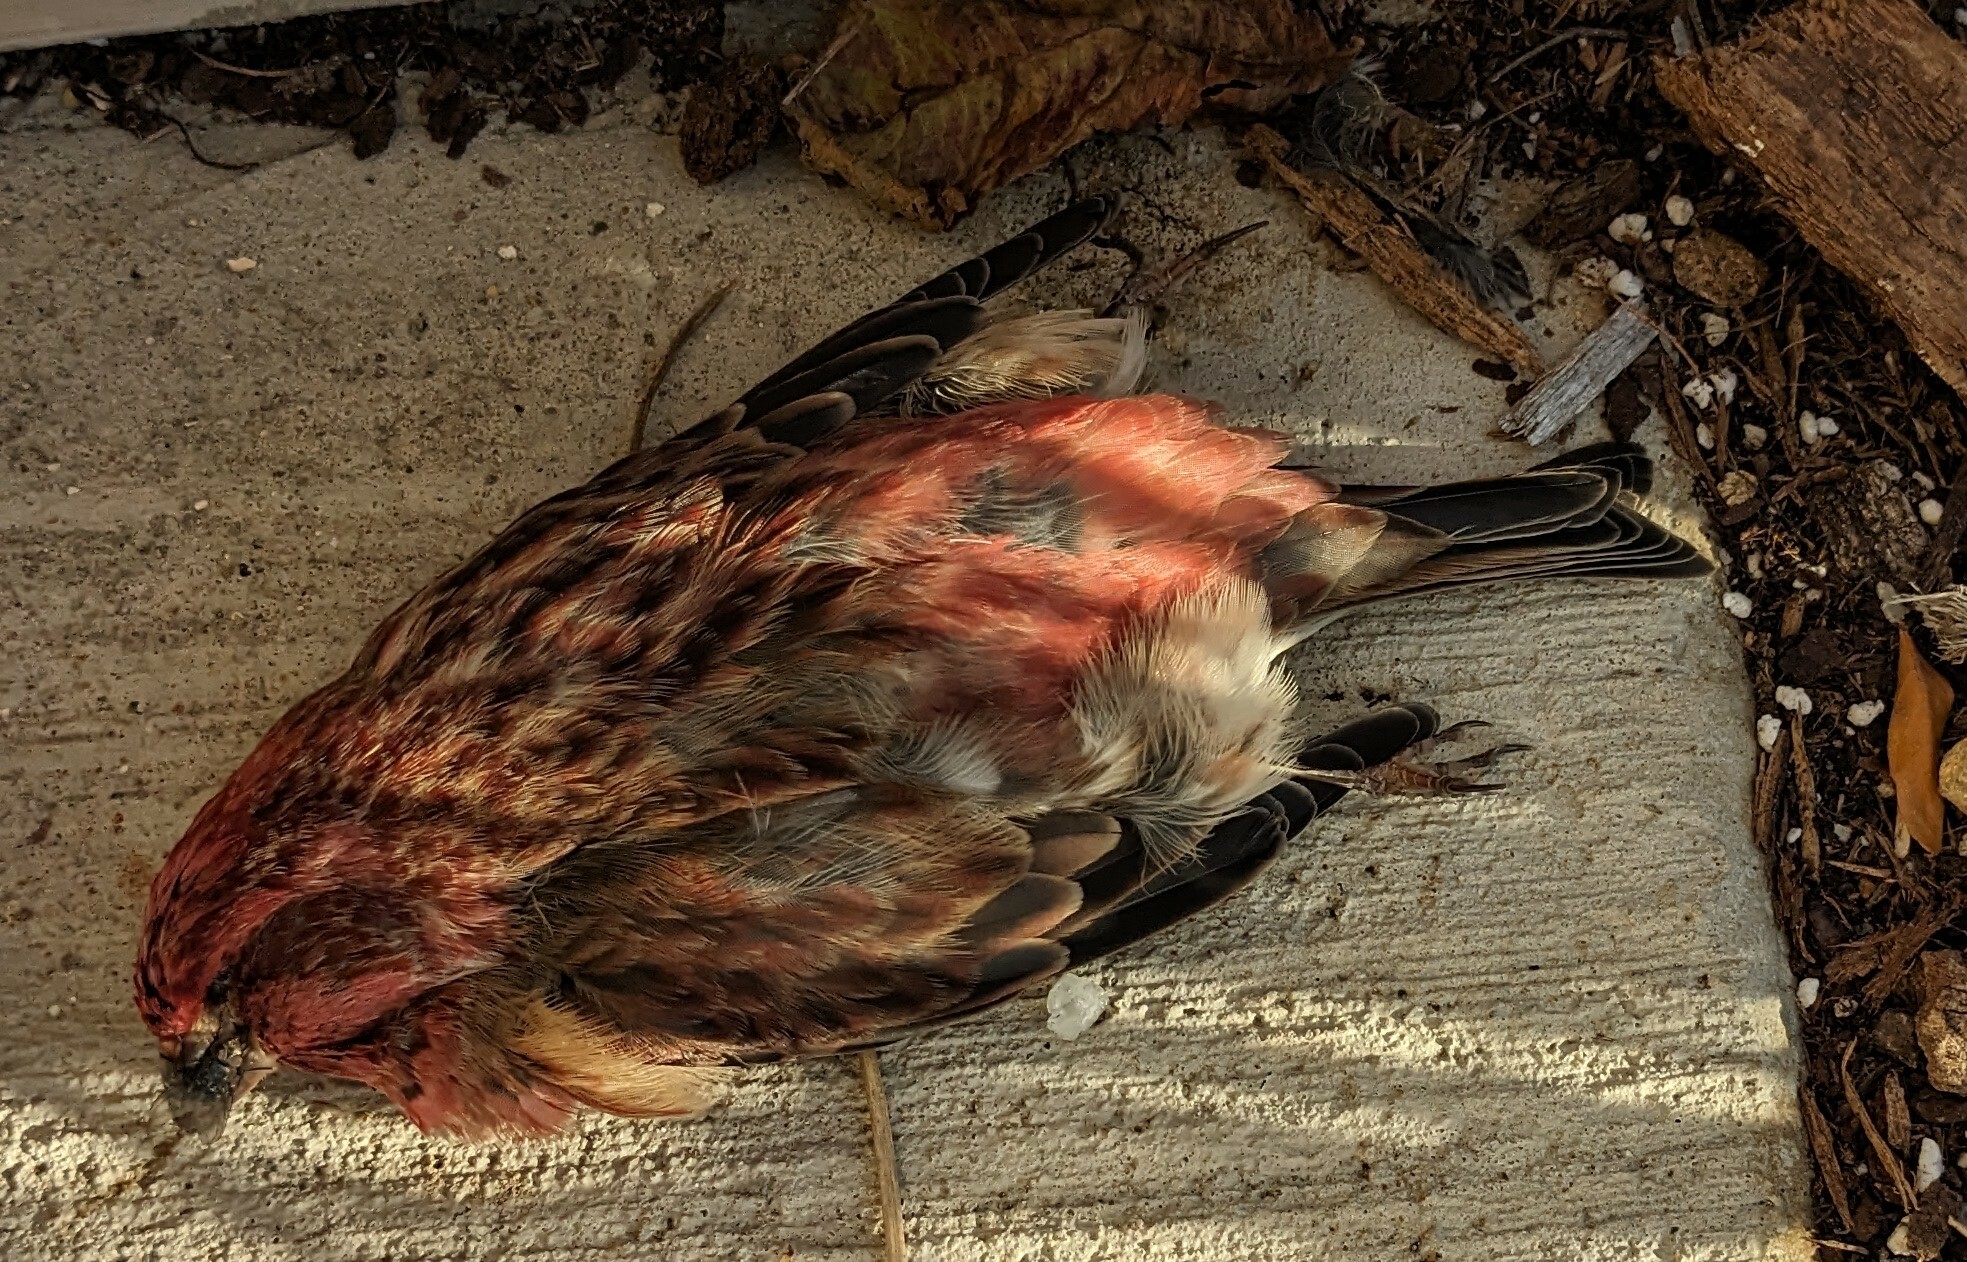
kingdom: Animalia
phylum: Chordata
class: Aves
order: Passeriformes
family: Fringillidae
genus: Haemorhous
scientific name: Haemorhous purpureus
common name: Purple finch
